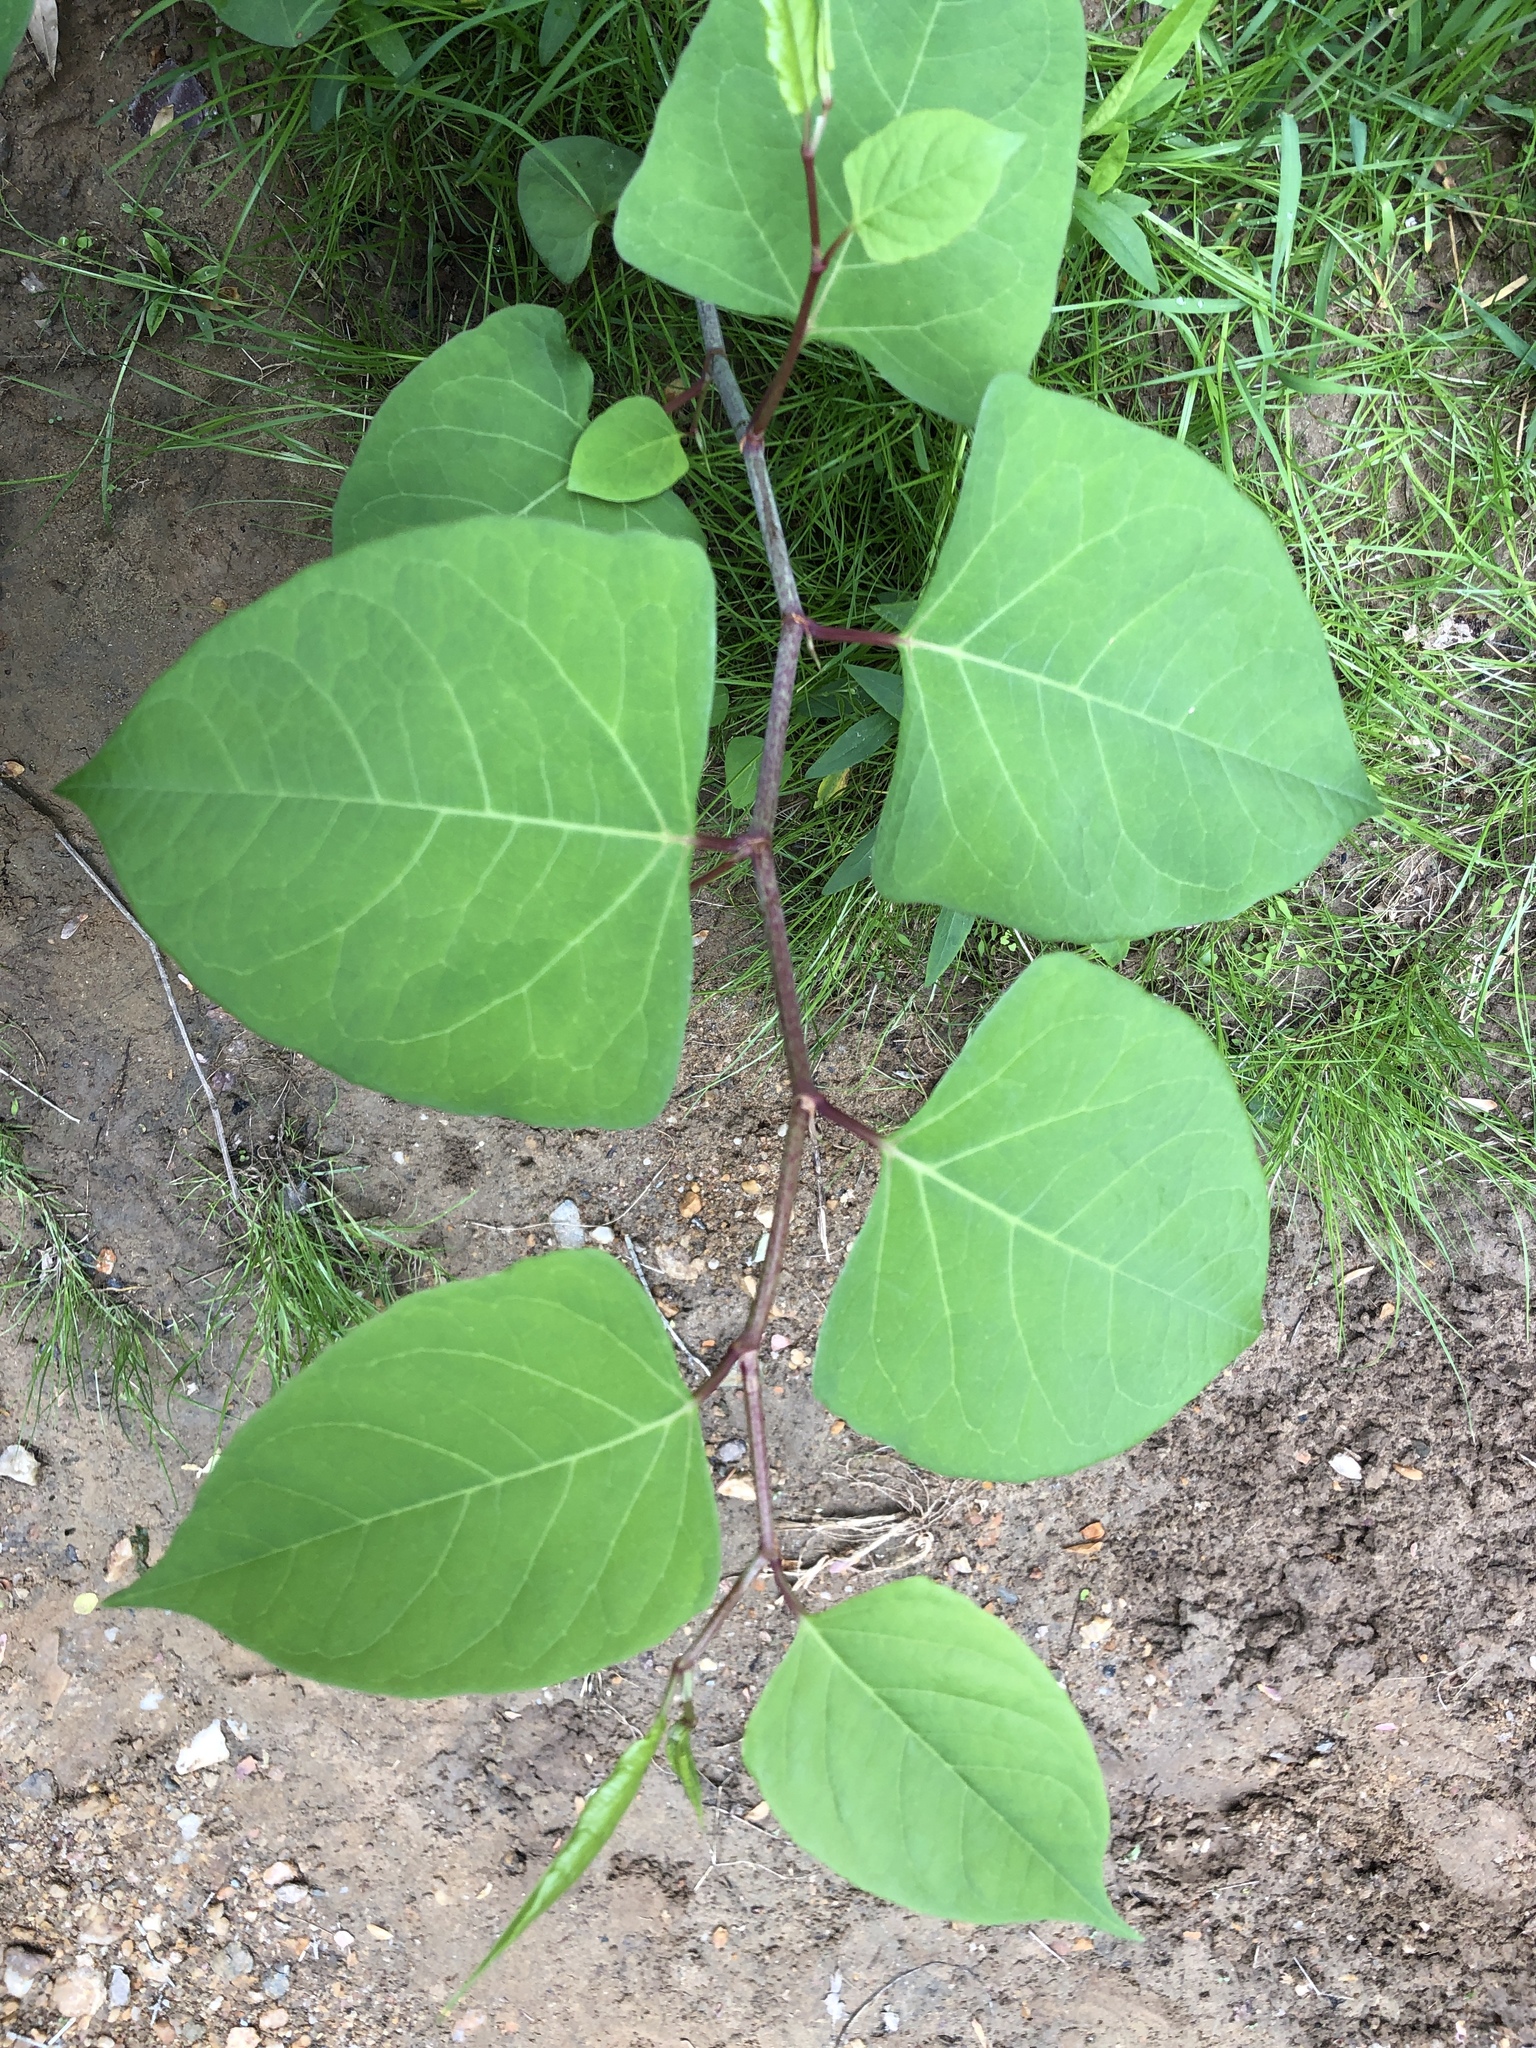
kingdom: Plantae
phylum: Tracheophyta
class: Magnoliopsida
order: Caryophyllales
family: Polygonaceae
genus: Reynoutria
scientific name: Reynoutria japonica
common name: Japanese knotweed
